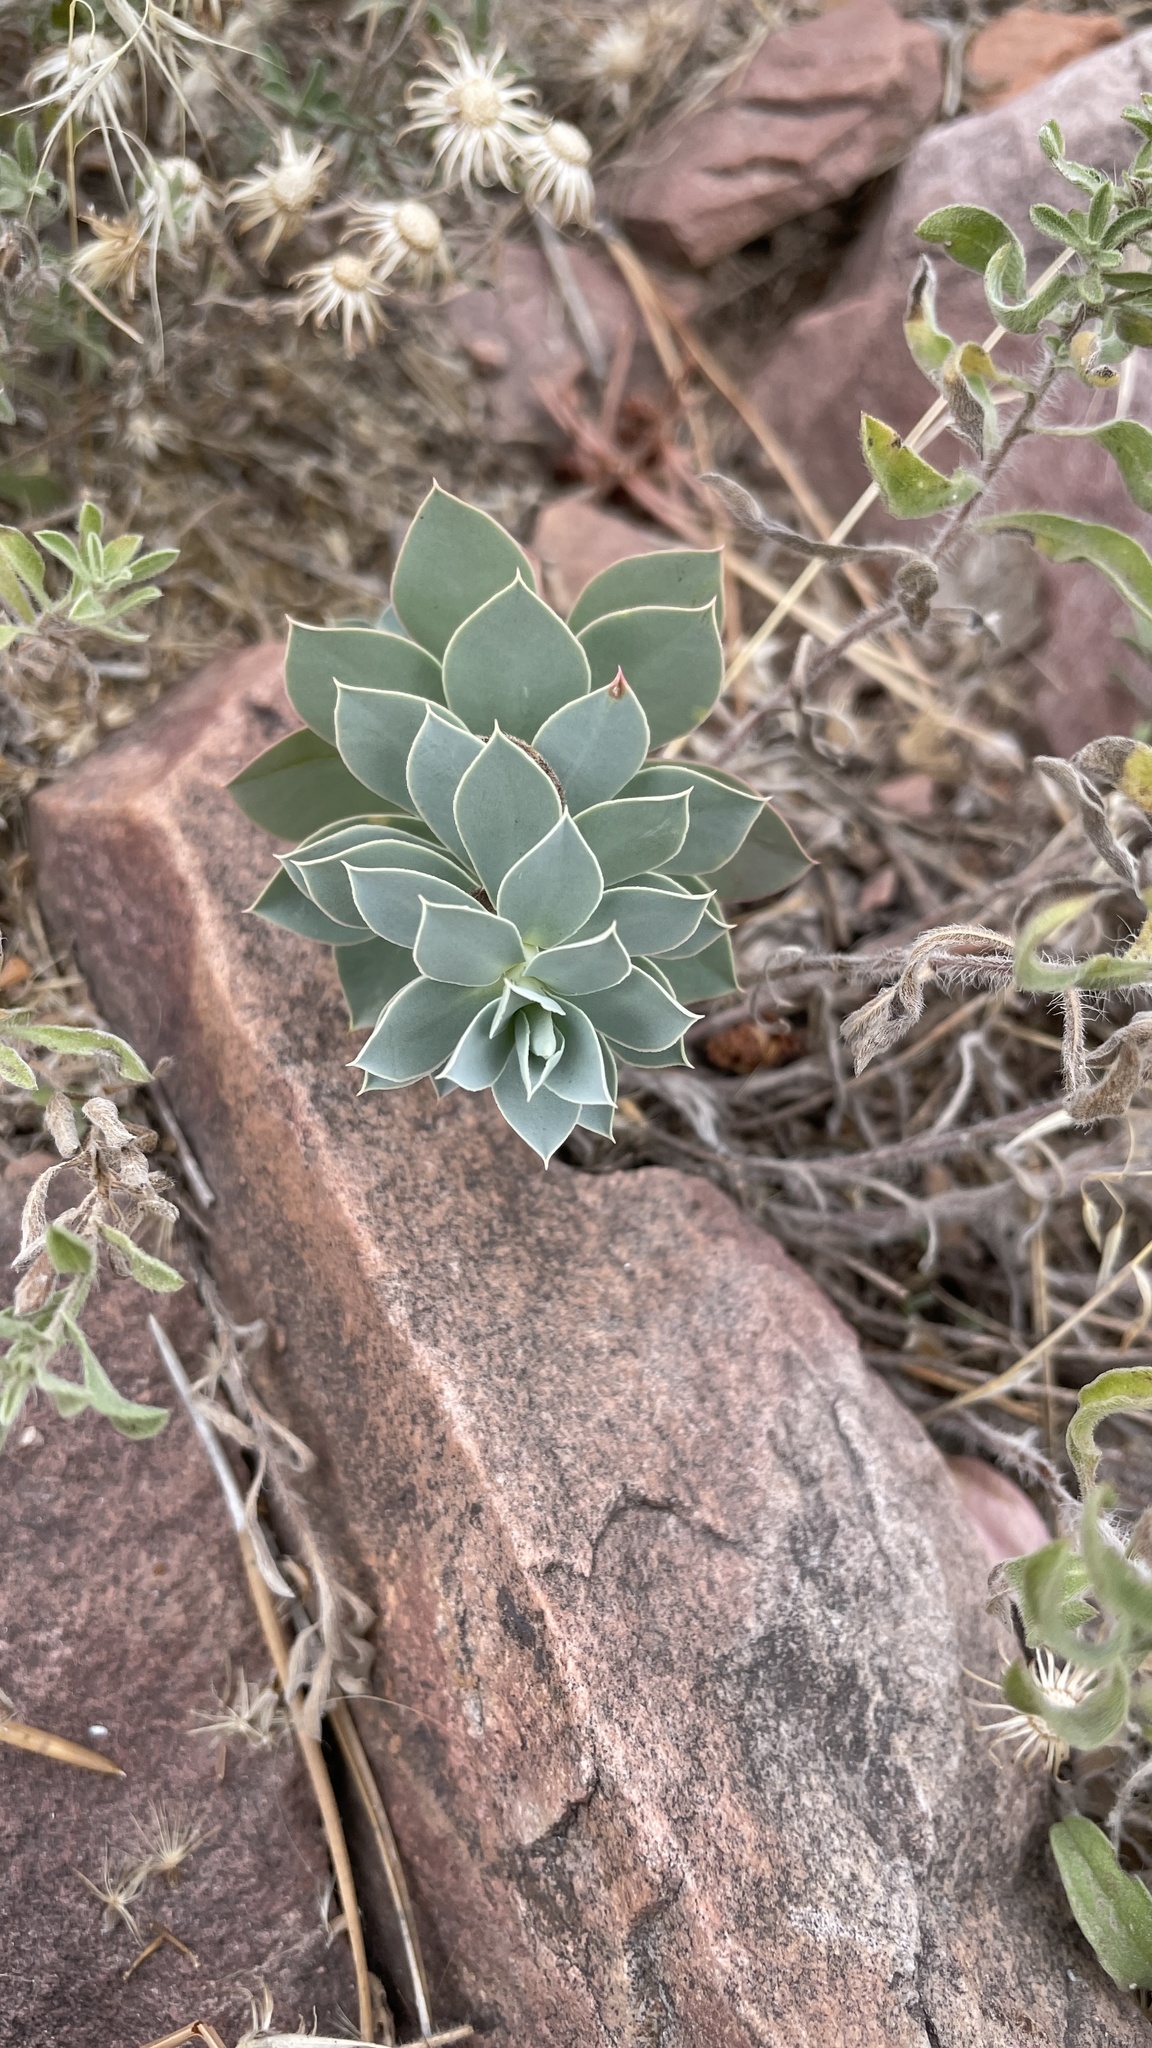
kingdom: Plantae
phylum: Tracheophyta
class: Magnoliopsida
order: Malpighiales
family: Euphorbiaceae
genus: Euphorbia
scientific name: Euphorbia myrsinites
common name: Myrtle spurge
